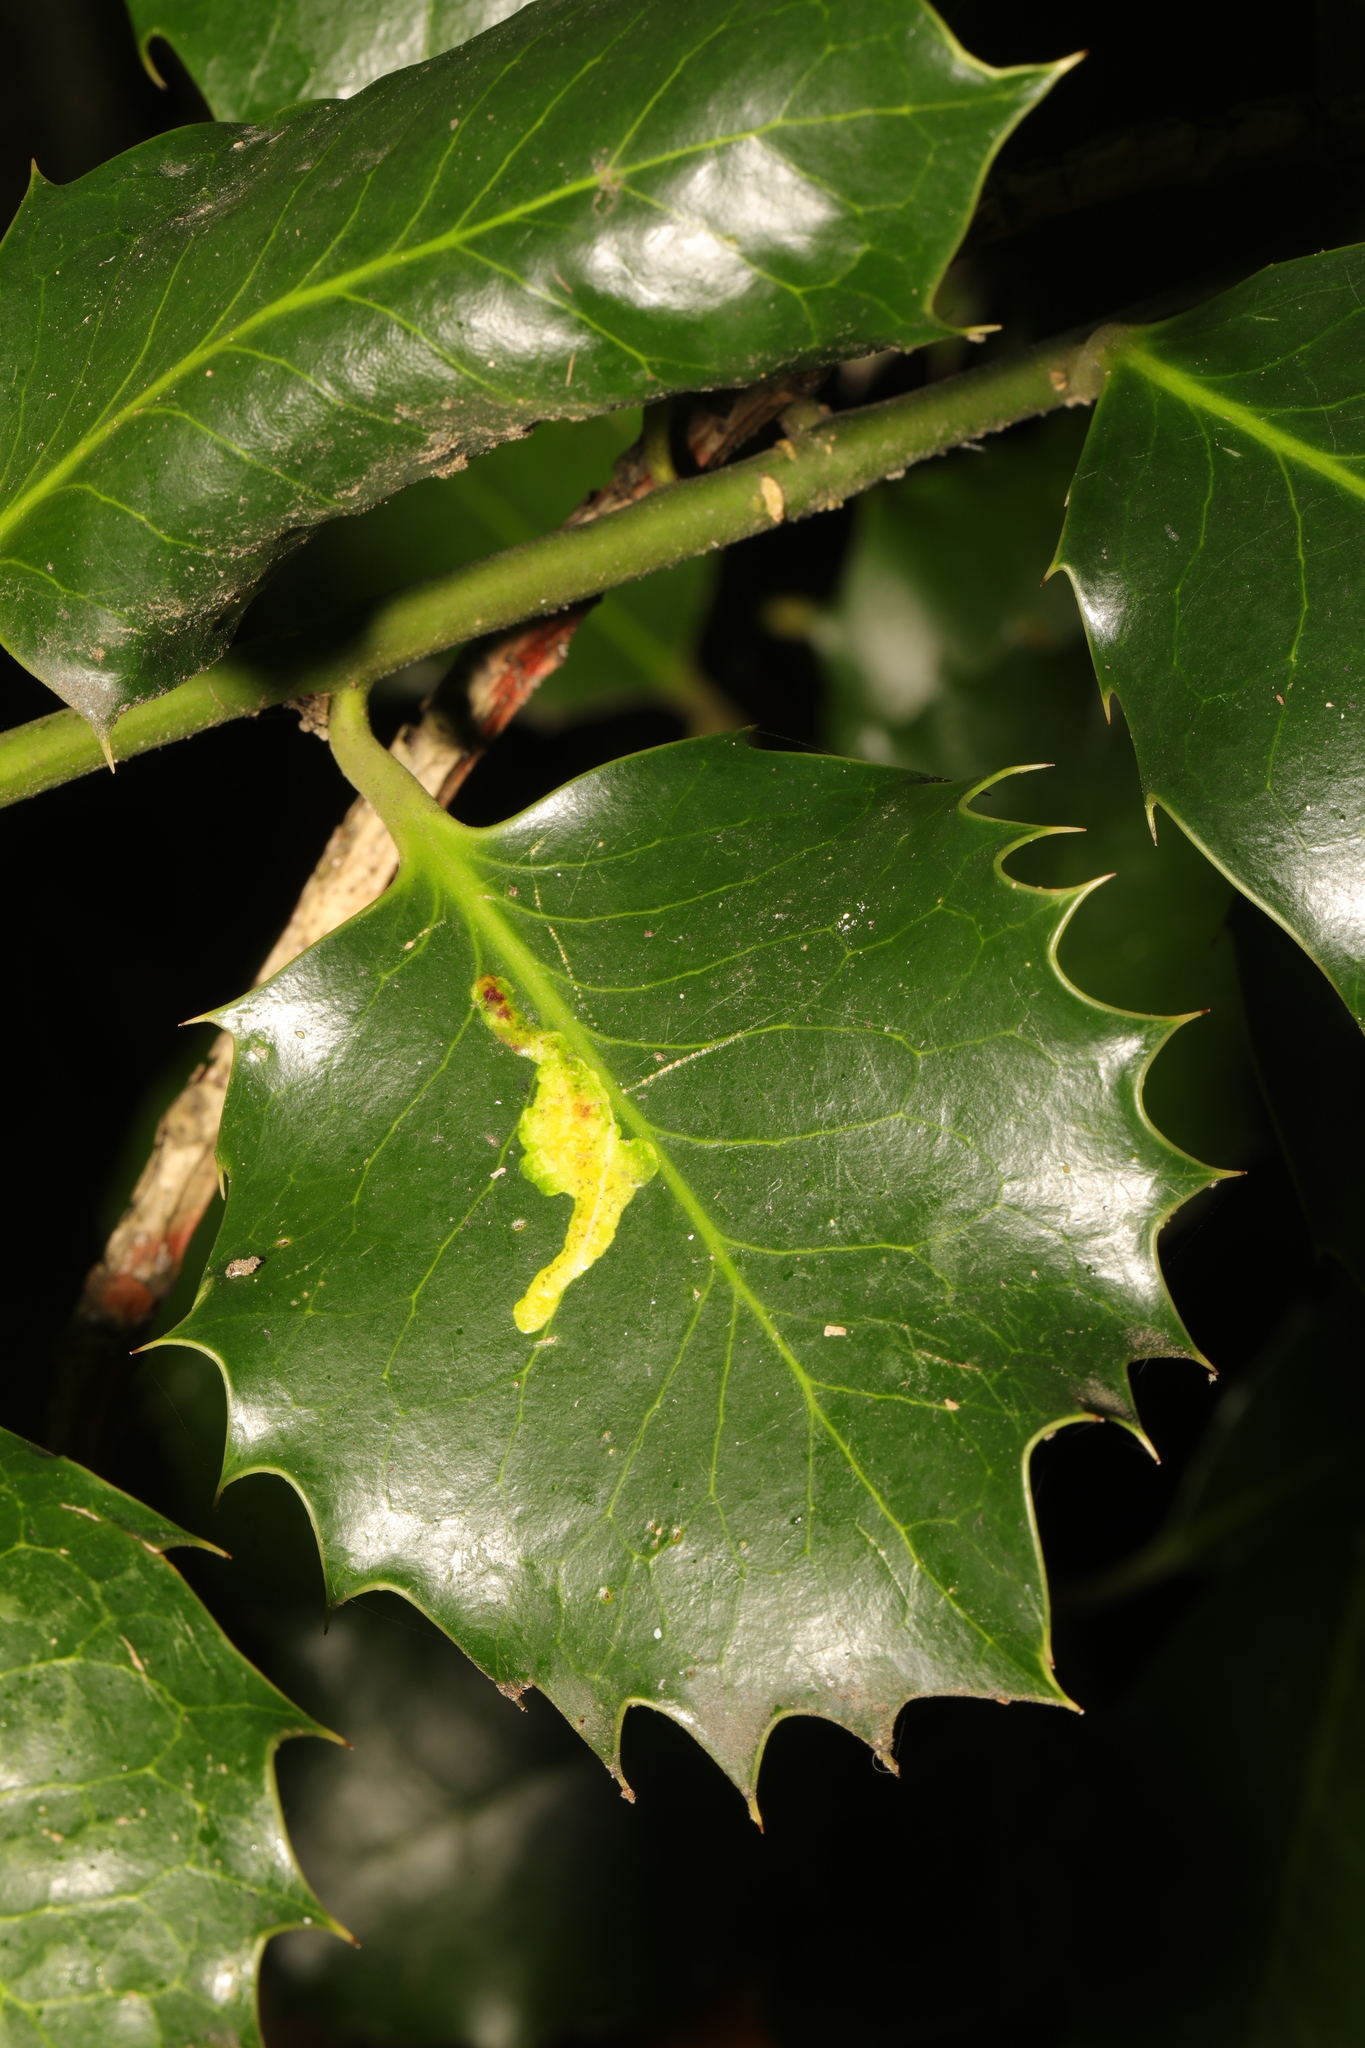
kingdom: Animalia
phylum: Arthropoda
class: Insecta
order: Diptera
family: Agromyzidae
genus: Phytomyza
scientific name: Phytomyza ilicis
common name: Holly leafminer
